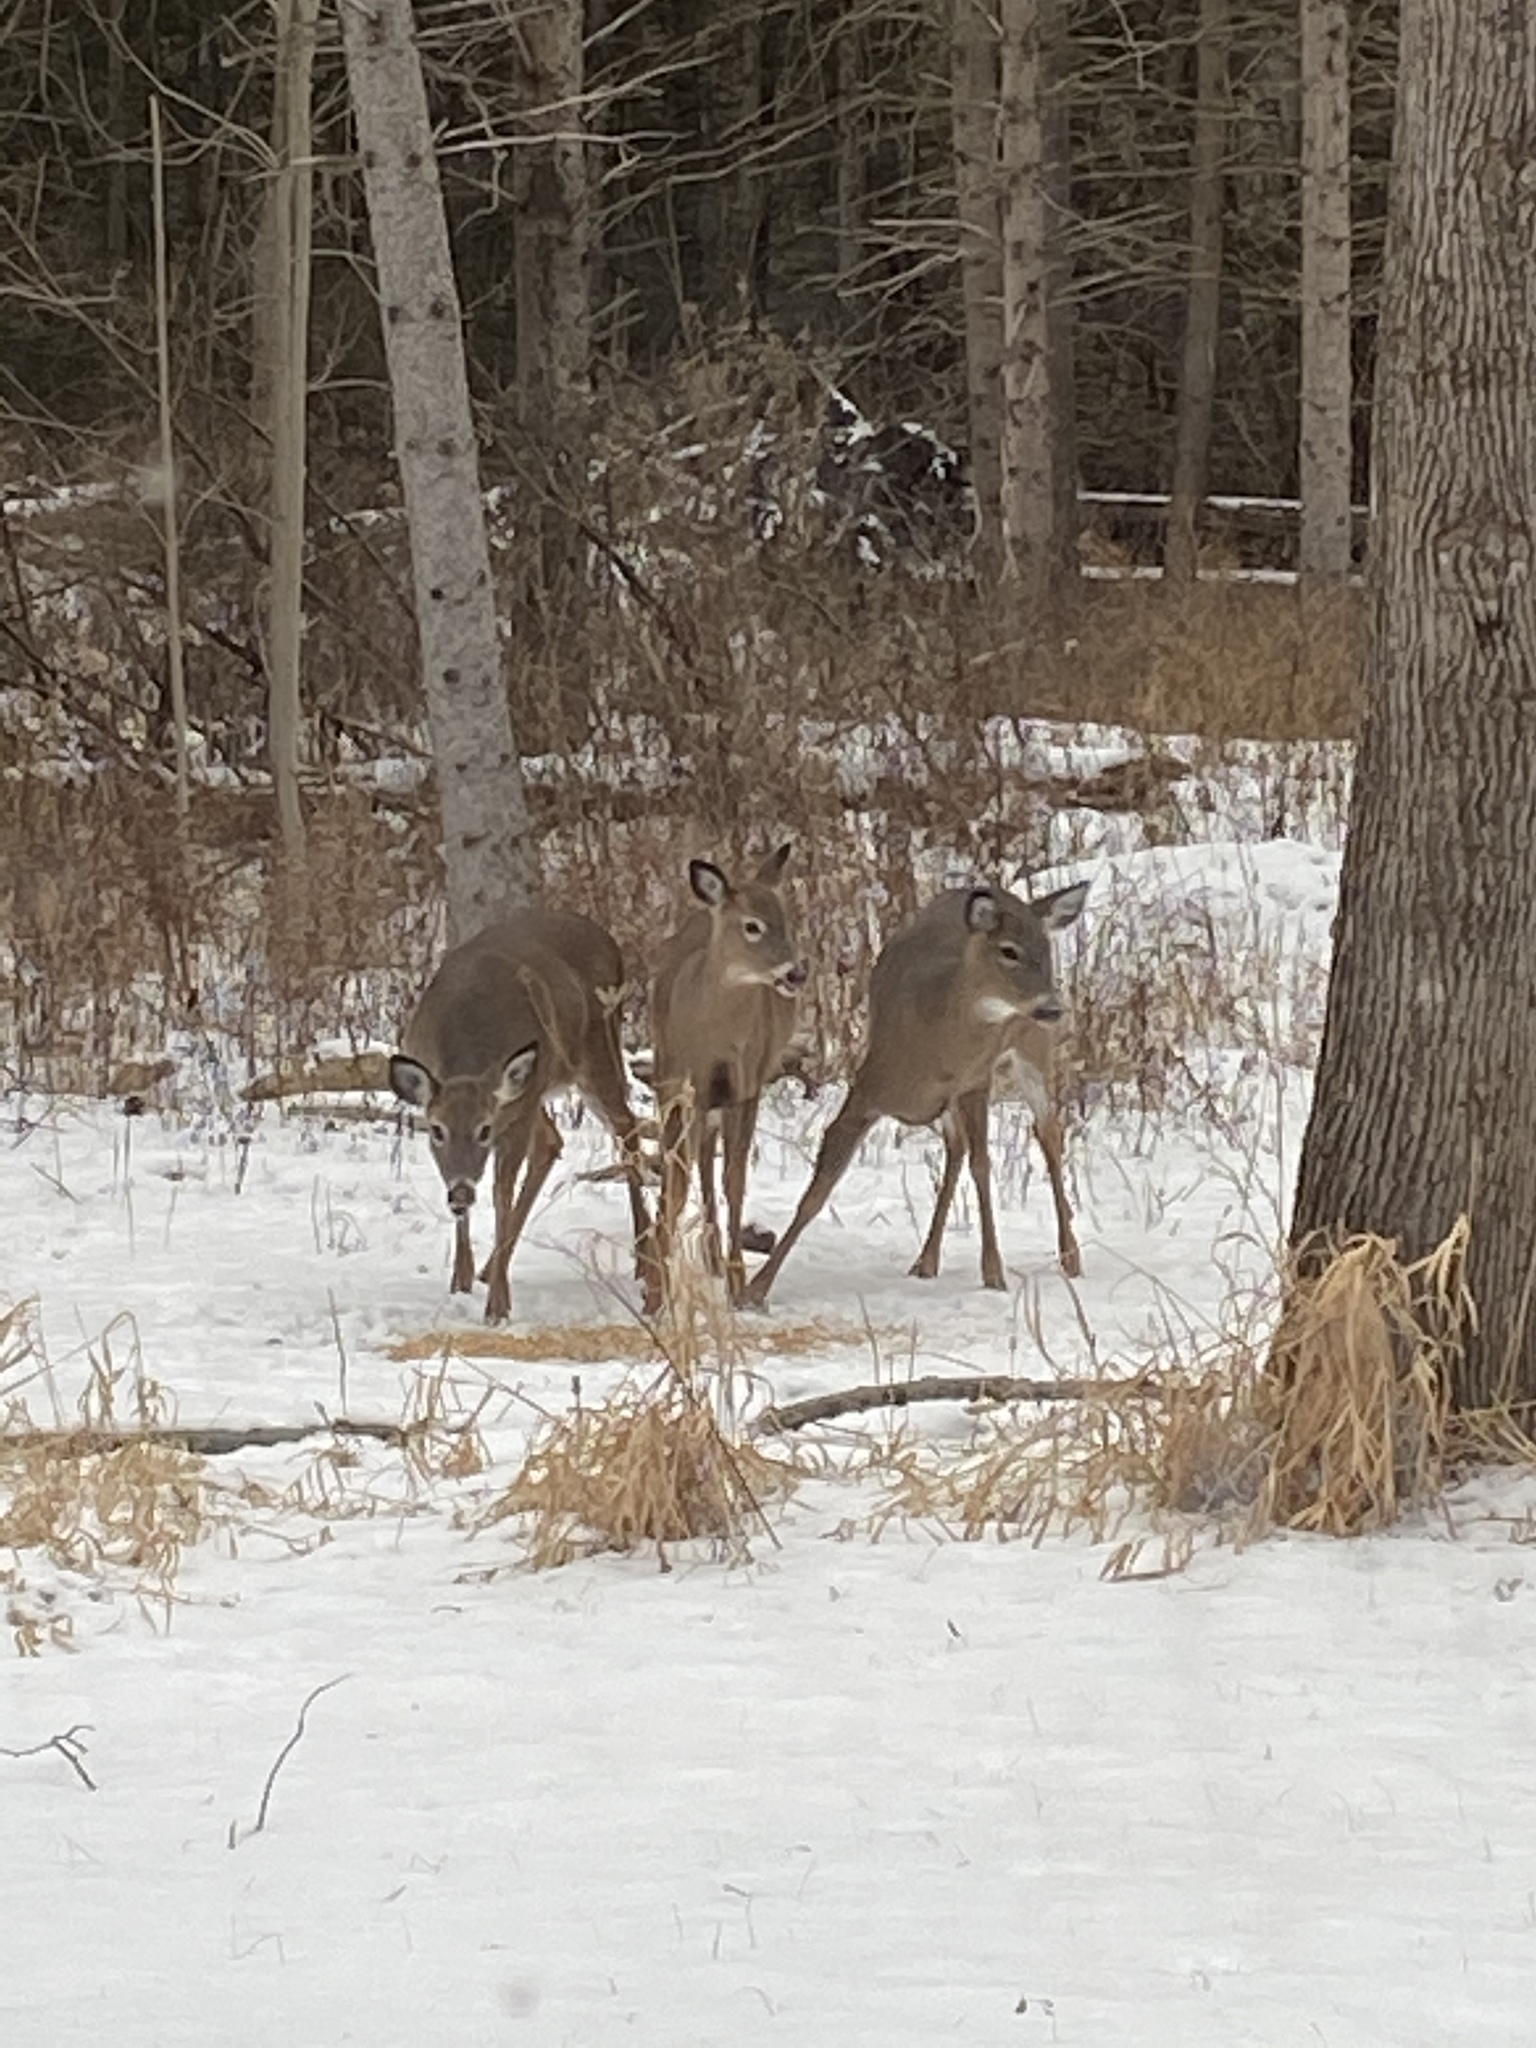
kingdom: Animalia
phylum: Chordata
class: Mammalia
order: Artiodactyla
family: Cervidae
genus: Odocoileus
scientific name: Odocoileus virginianus
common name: White-tailed deer
